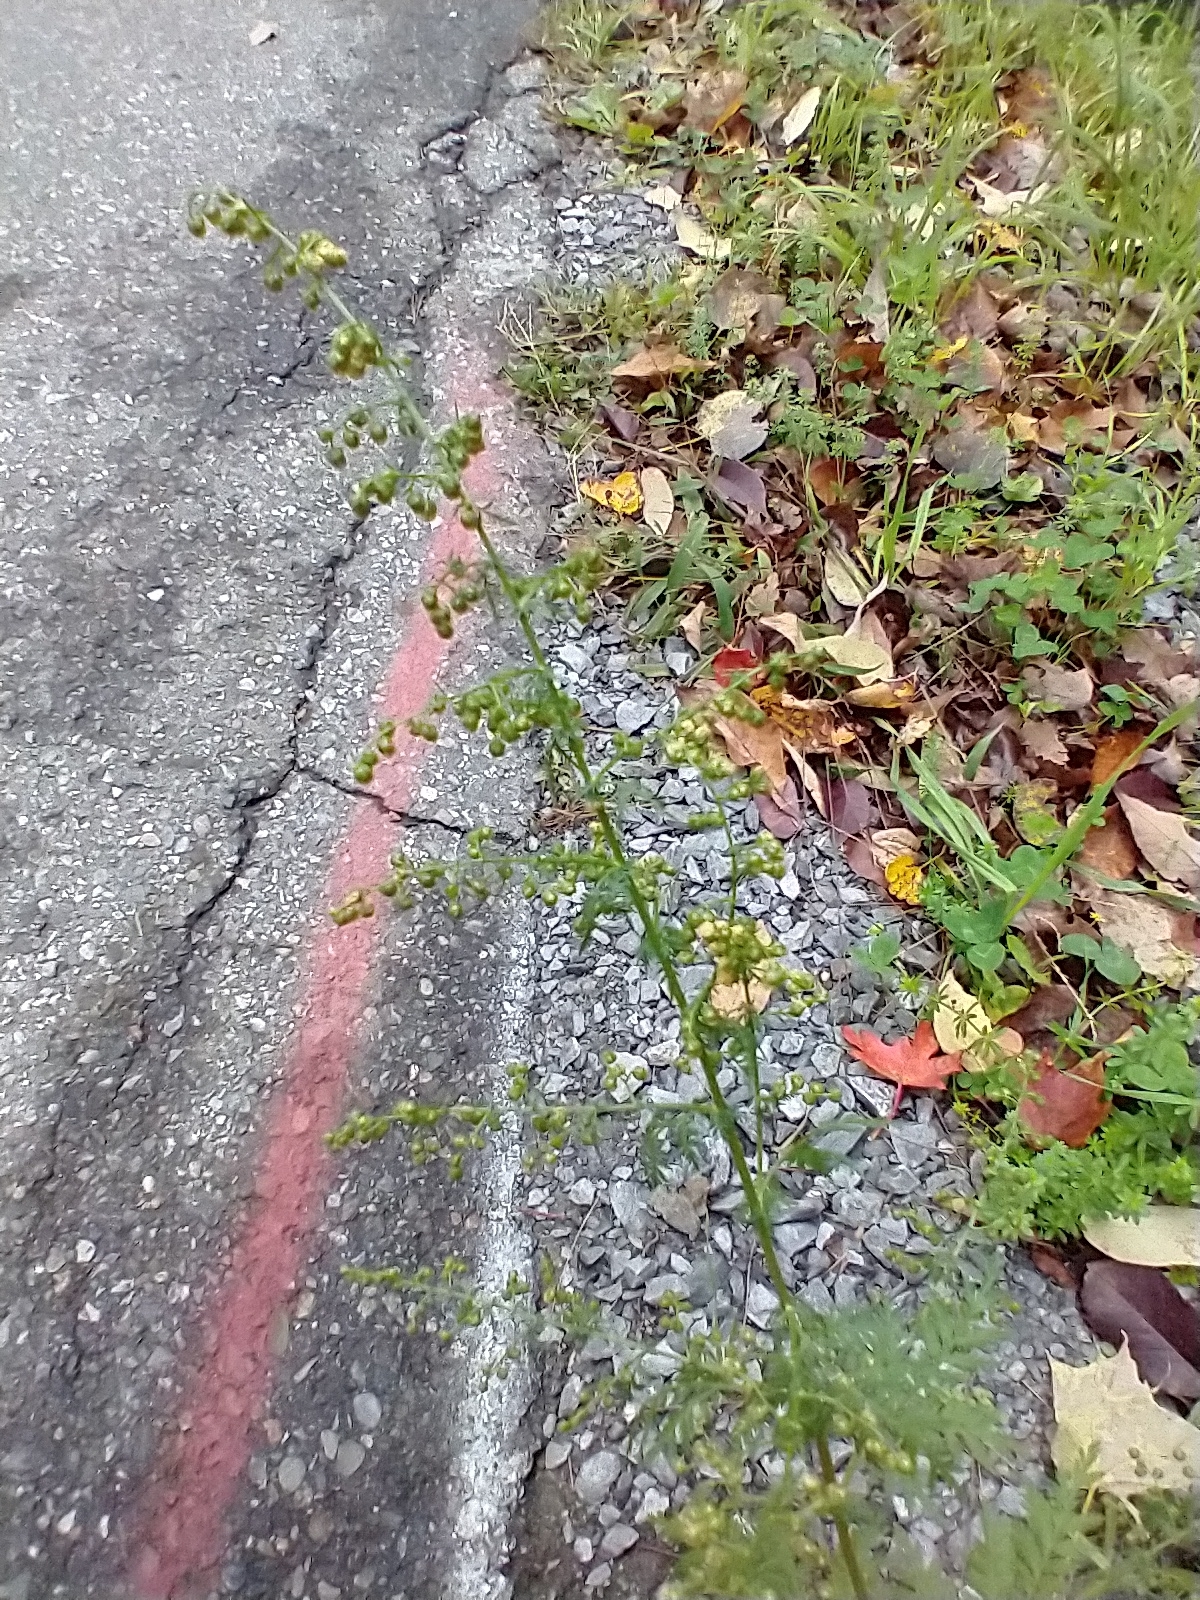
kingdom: Plantae
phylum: Tracheophyta
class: Magnoliopsida
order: Asterales
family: Asteraceae
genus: Artemisia
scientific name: Artemisia annua
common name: Sweet sagewort
